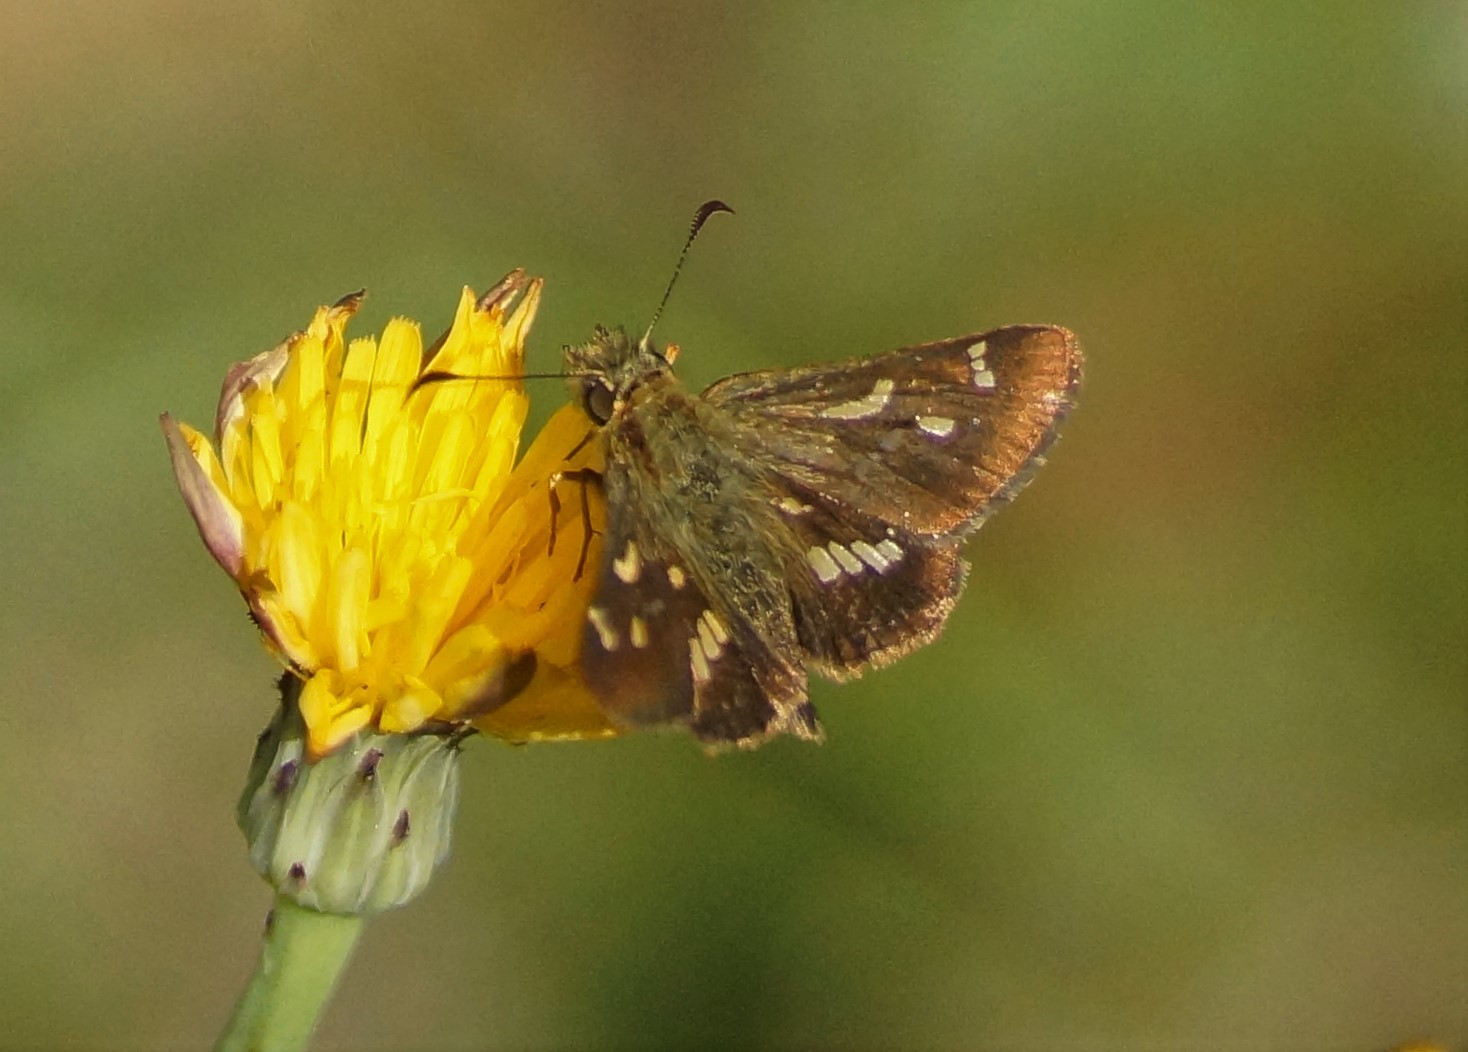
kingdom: Animalia
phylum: Arthropoda
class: Insecta
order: Lepidoptera
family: Hesperiidae
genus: Dispar
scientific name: Dispar compacta
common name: Barred skipper
